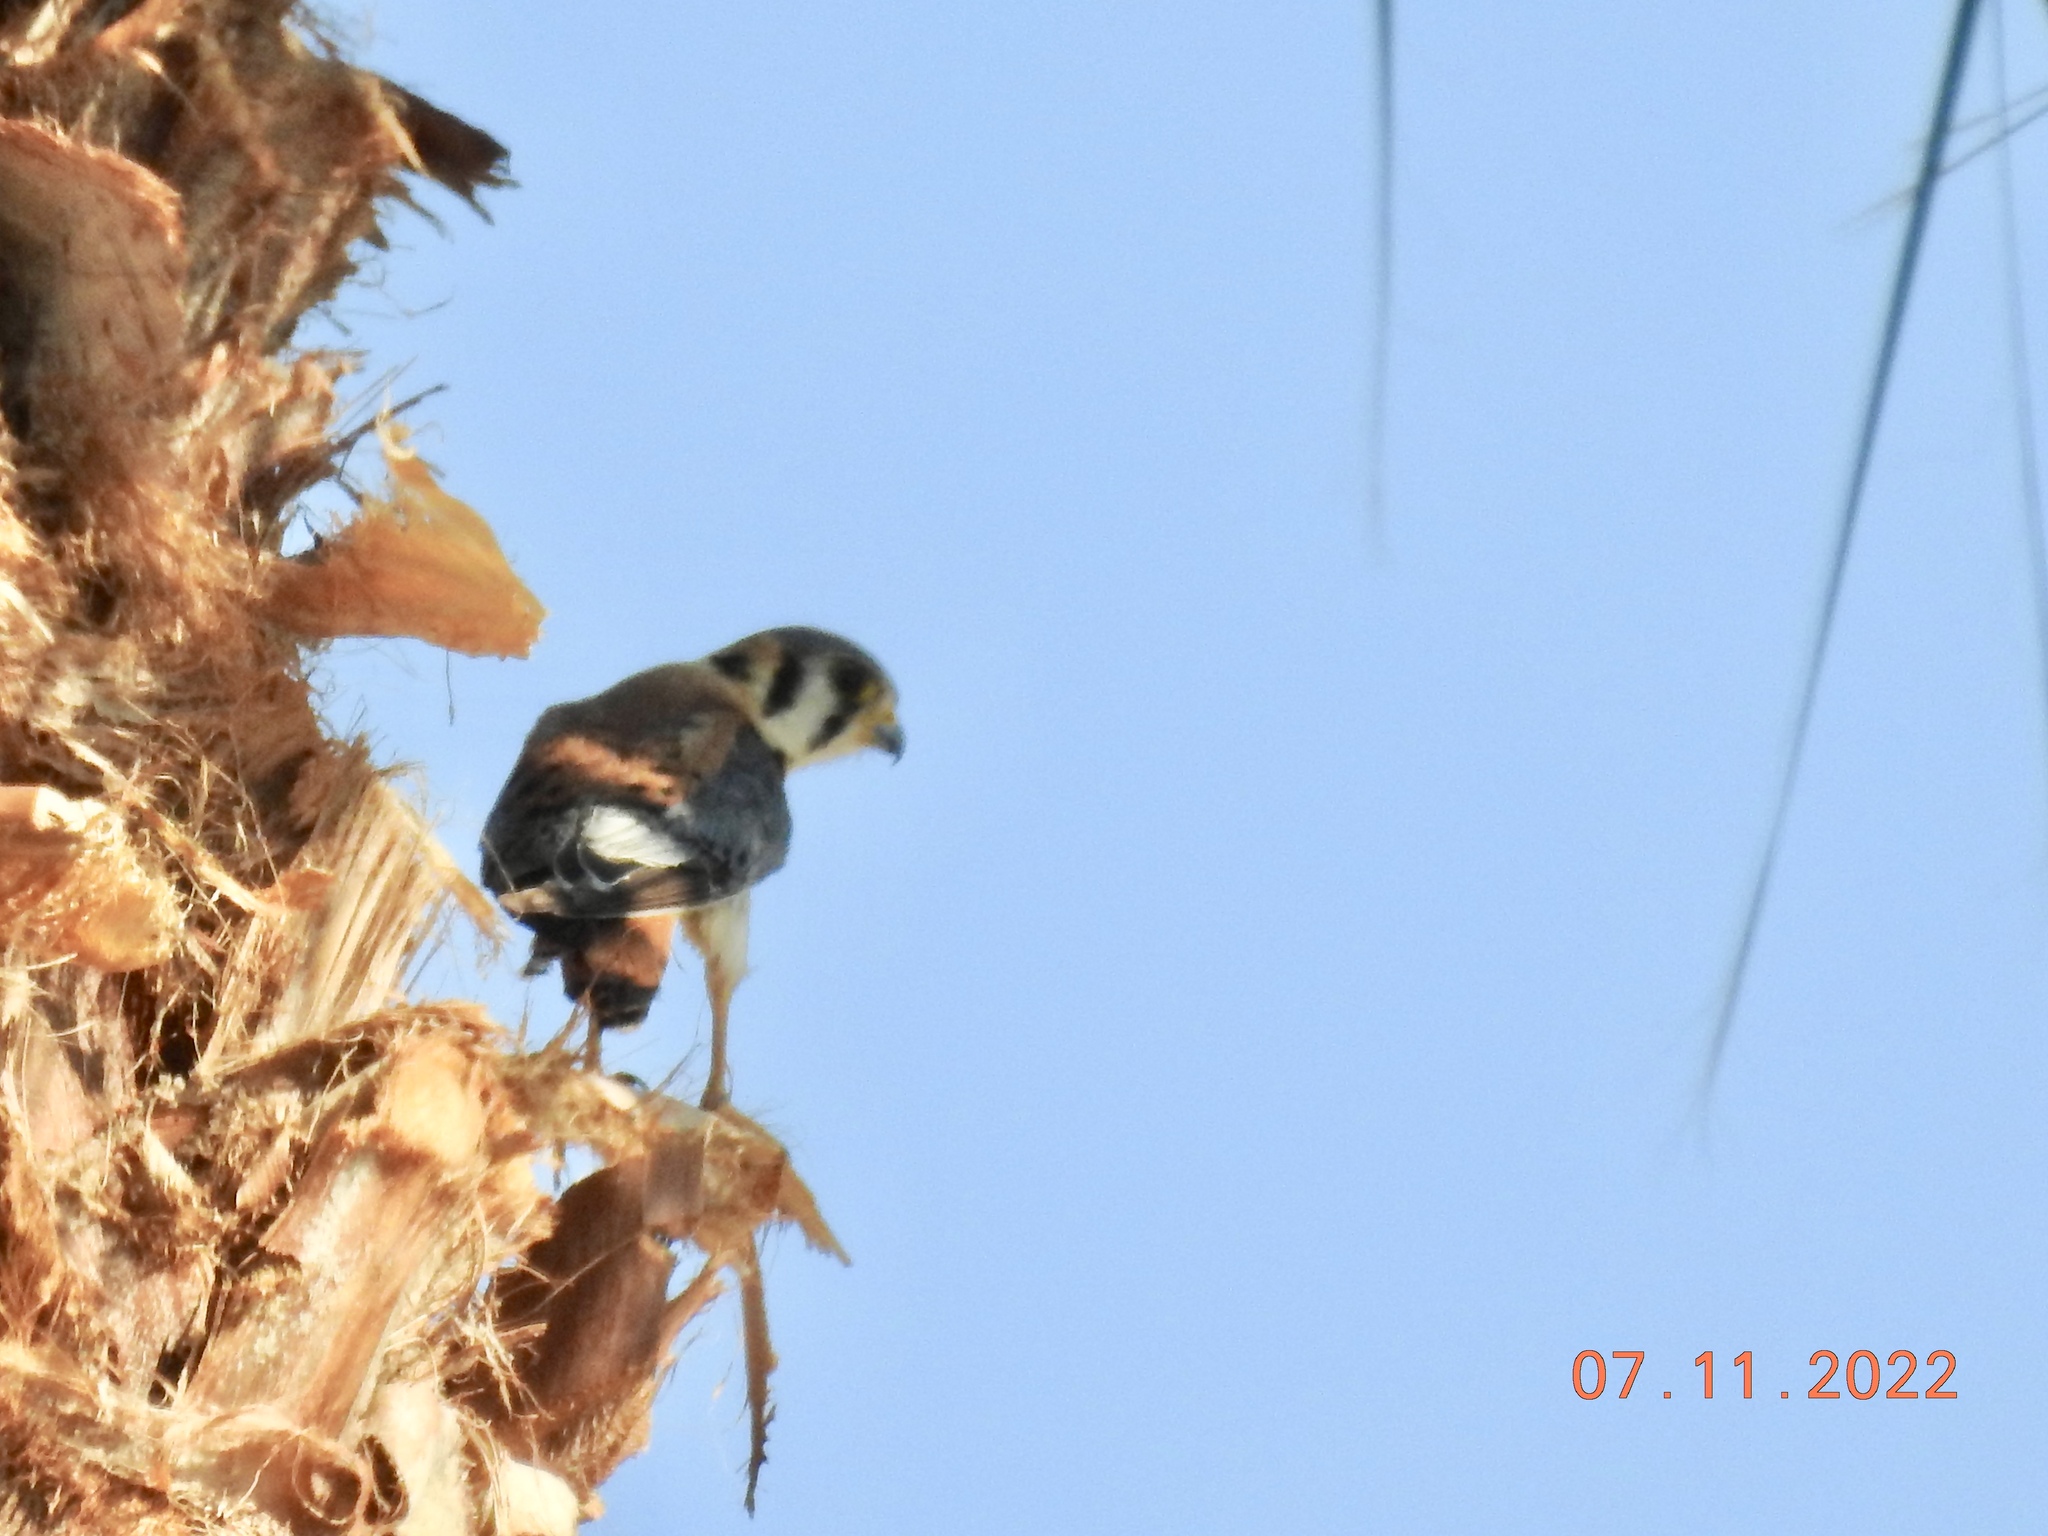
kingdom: Animalia
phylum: Chordata
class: Aves
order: Falconiformes
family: Falconidae
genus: Falco
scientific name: Falco sparverius
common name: American kestrel
